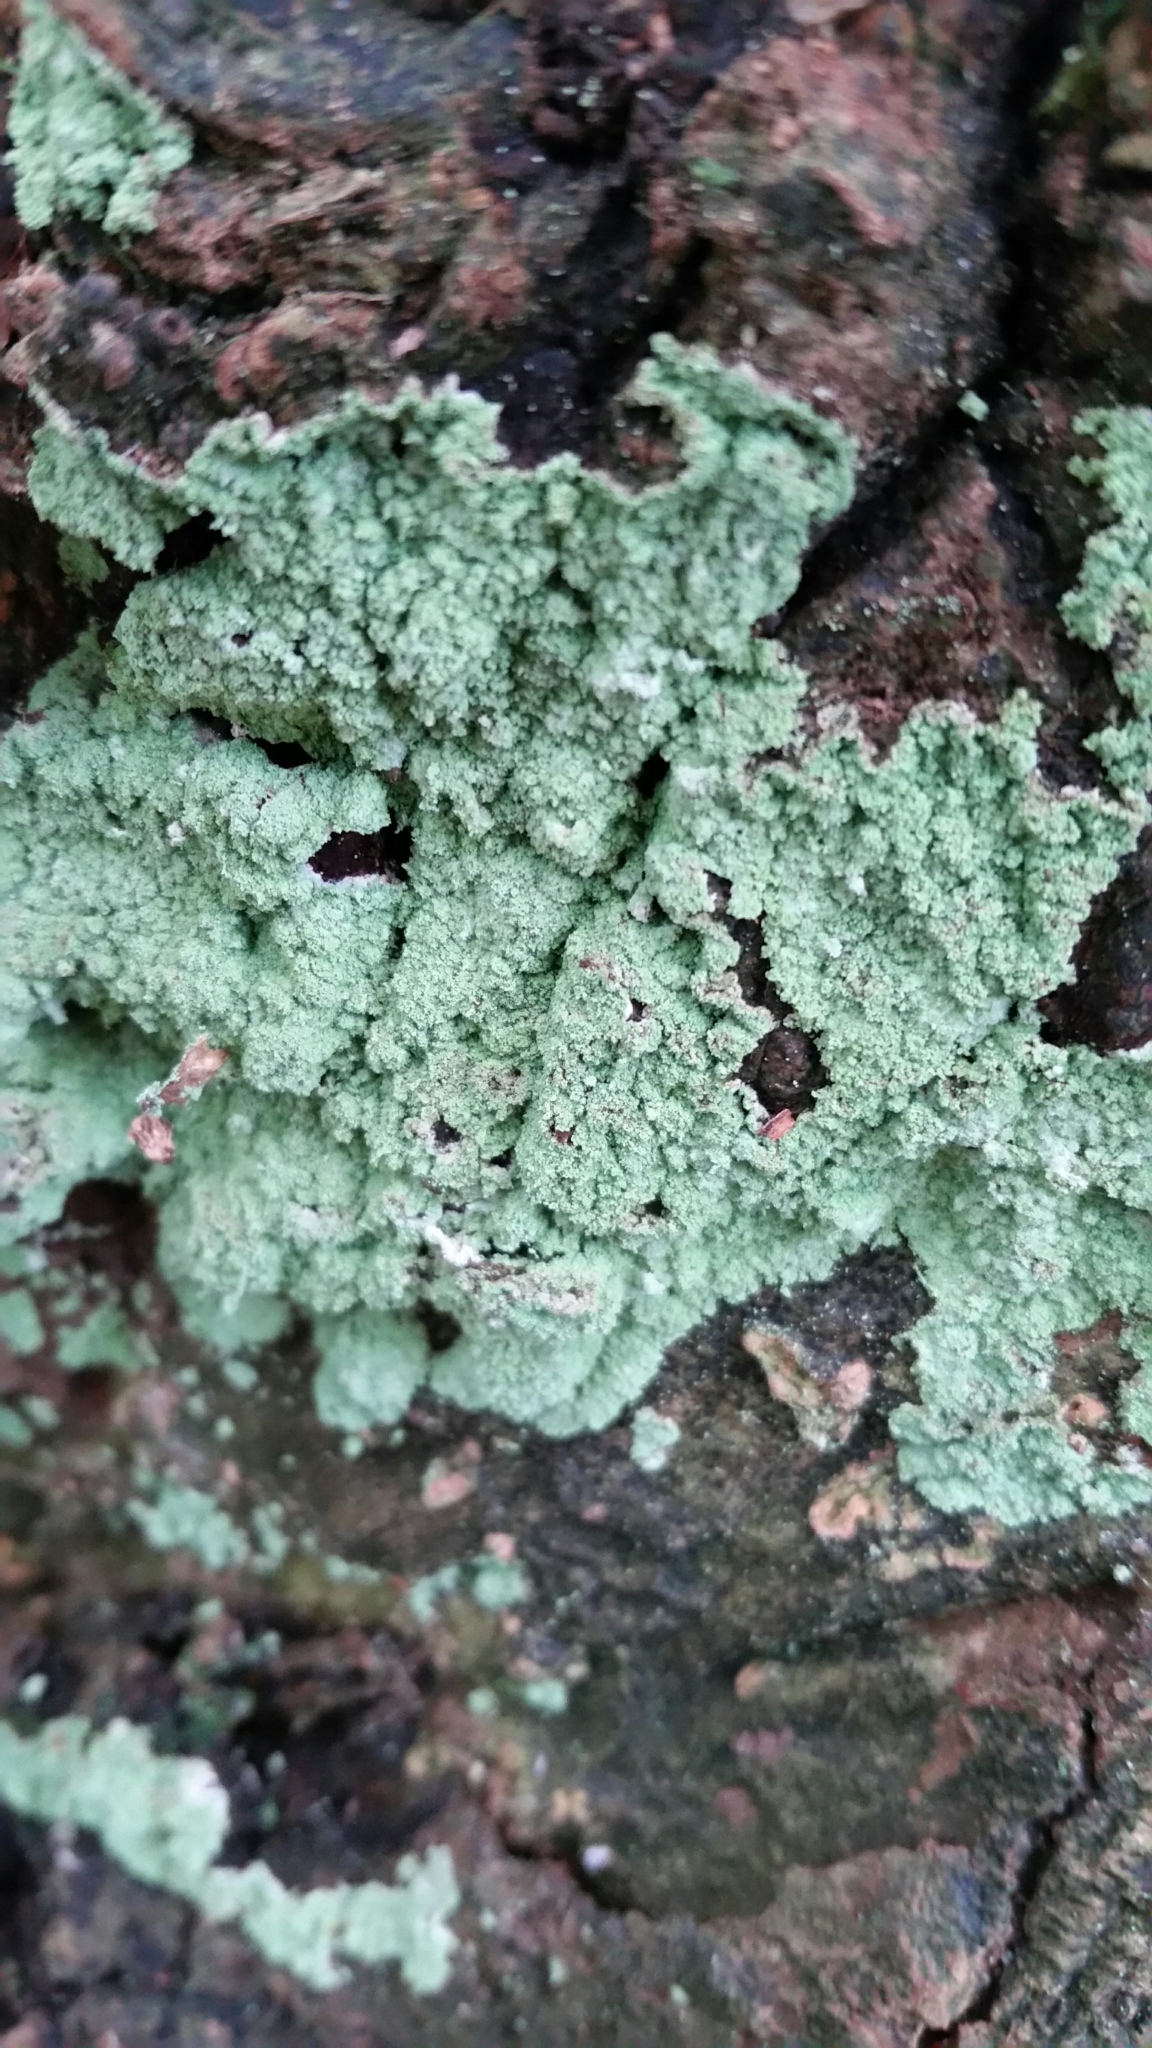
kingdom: Fungi
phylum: Ascomycota
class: Lecanoromycetes
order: Lecanorales
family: Stereocaulaceae
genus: Lepraria
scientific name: Lepraria
